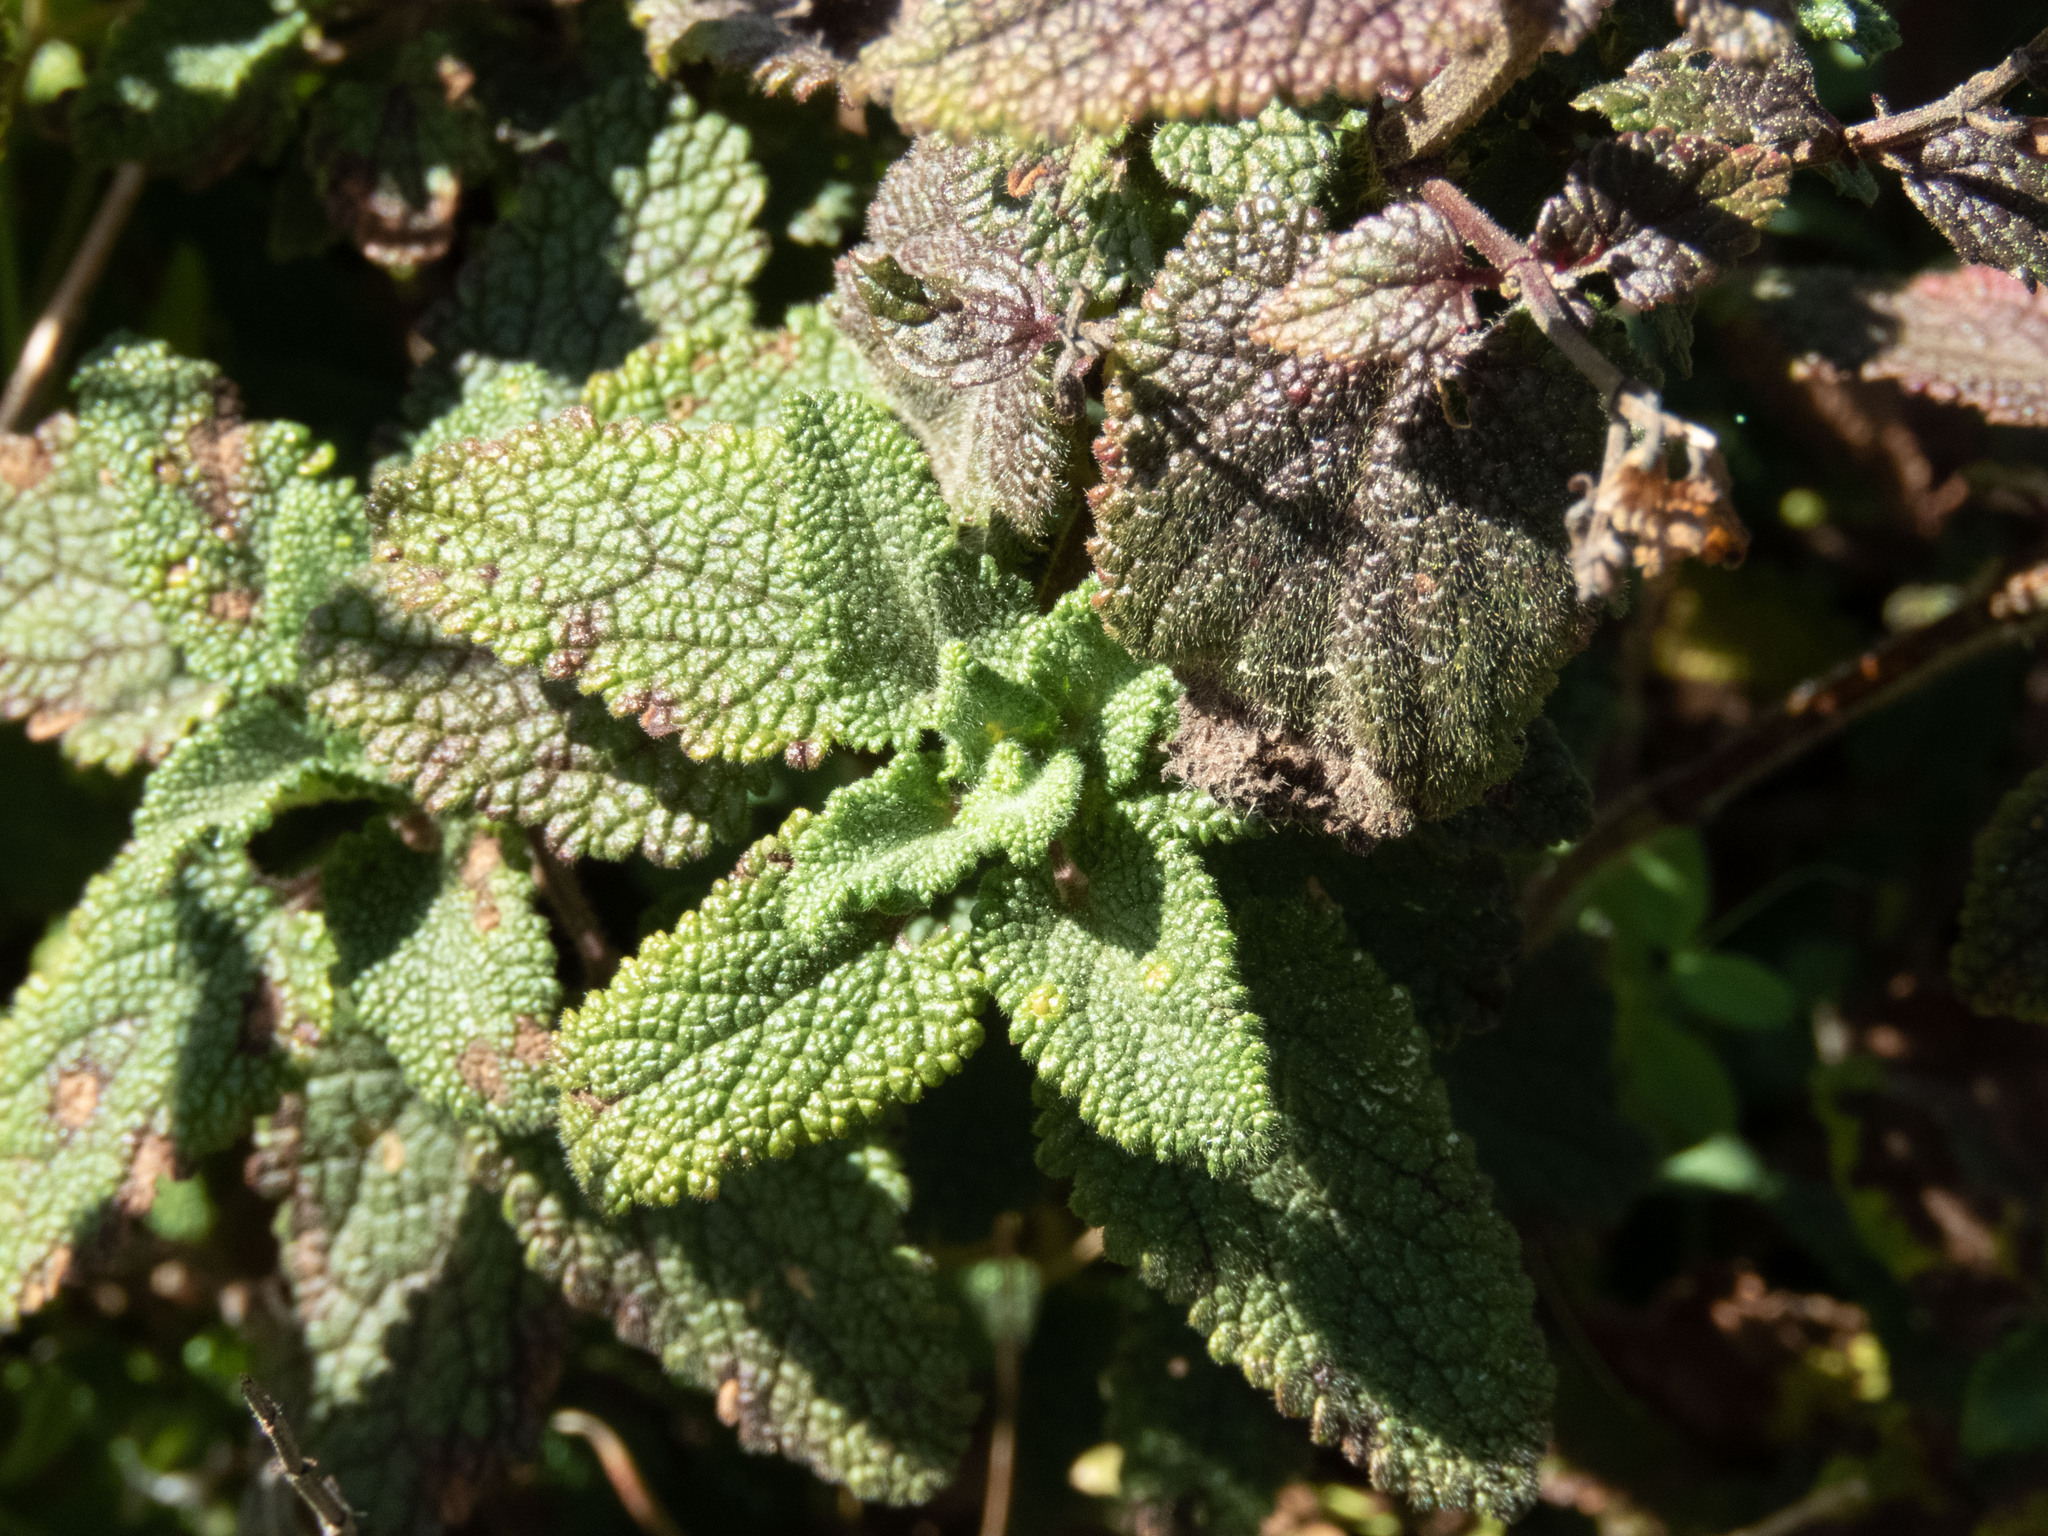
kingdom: Plantae
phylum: Tracheophyta
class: Magnoliopsida
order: Lamiales
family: Lamiaceae
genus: Teucrium
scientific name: Teucrium scorodonia
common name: Woodland germander
